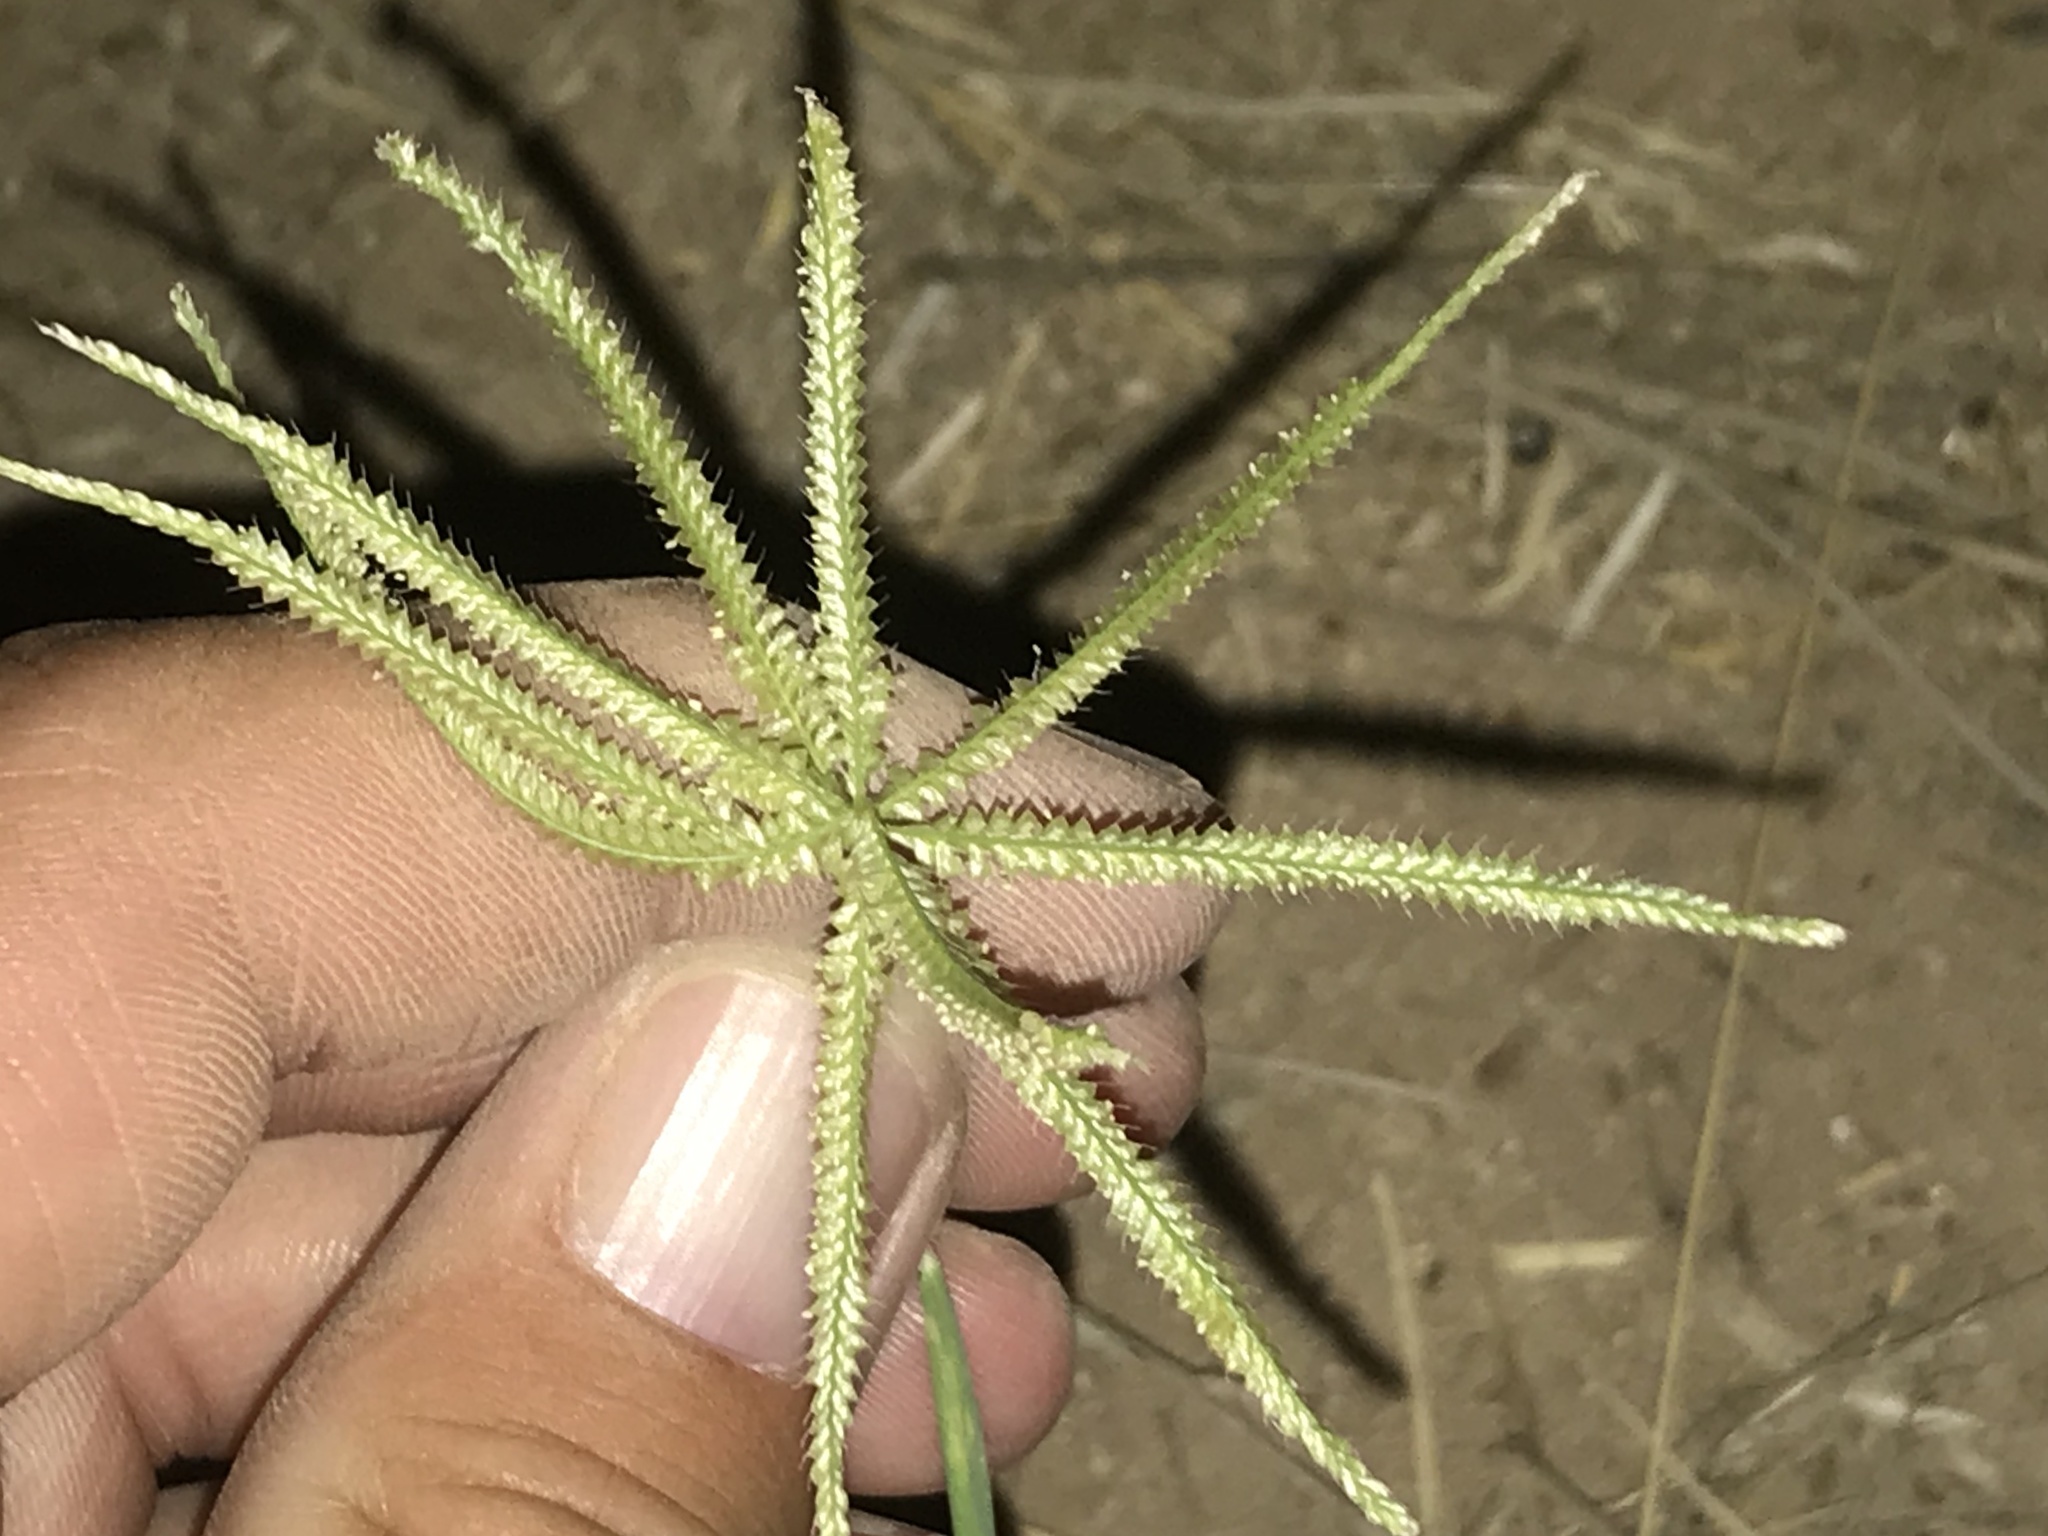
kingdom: Plantae
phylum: Tracheophyta
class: Liliopsida
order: Poales
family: Poaceae
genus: Chloris
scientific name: Chloris cucullata
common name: Hooded windmill grass
